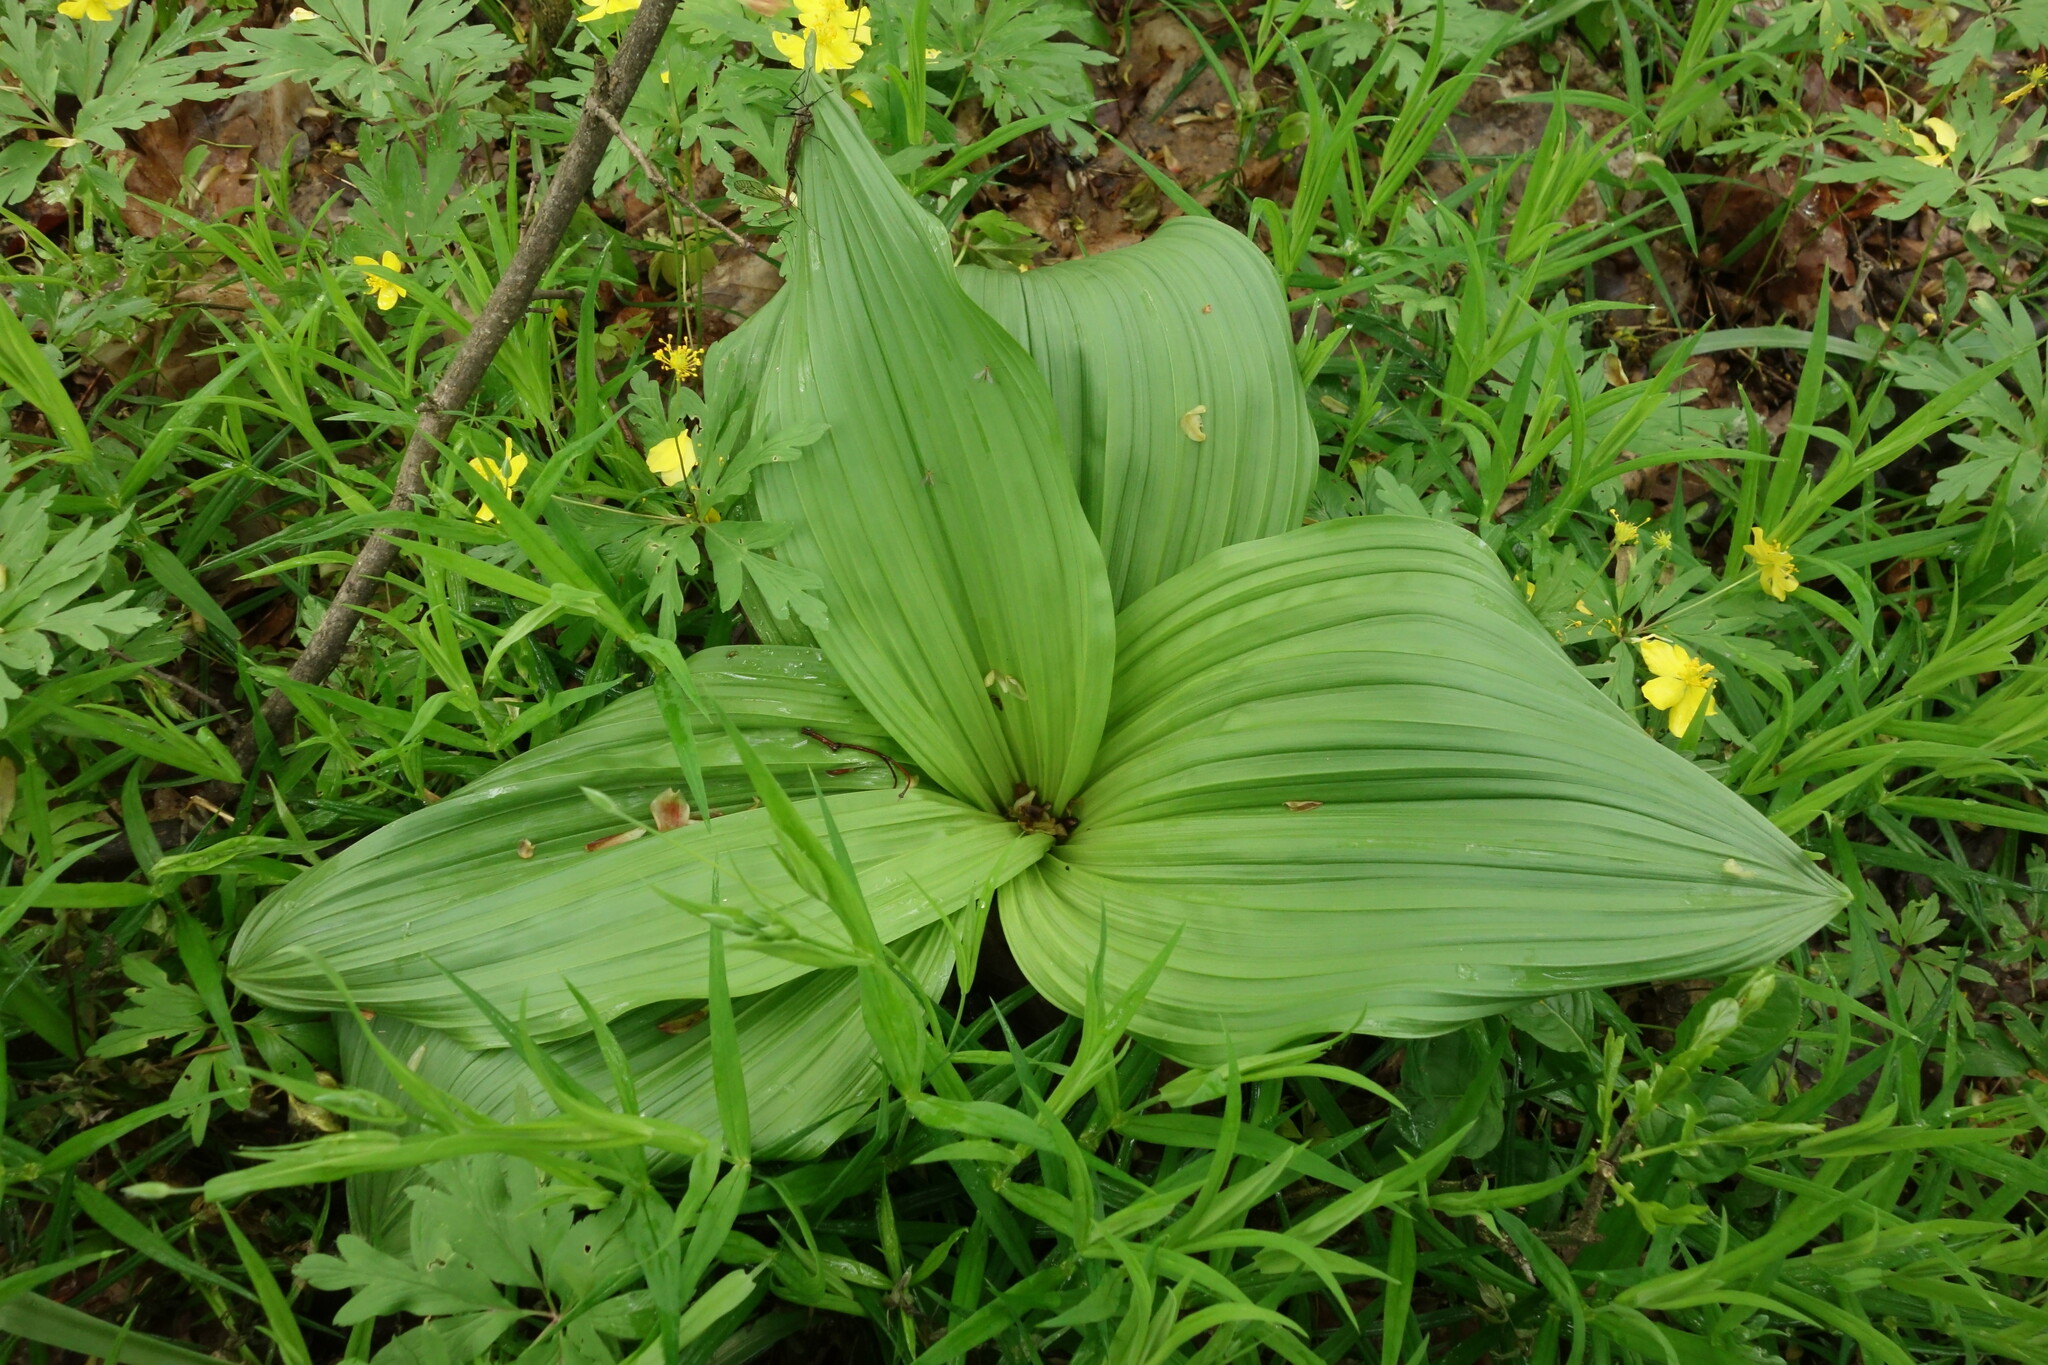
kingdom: Plantae
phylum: Tracheophyta
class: Liliopsida
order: Liliales
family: Melanthiaceae
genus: Veratrum
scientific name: Veratrum nigrum
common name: Black veratrum
